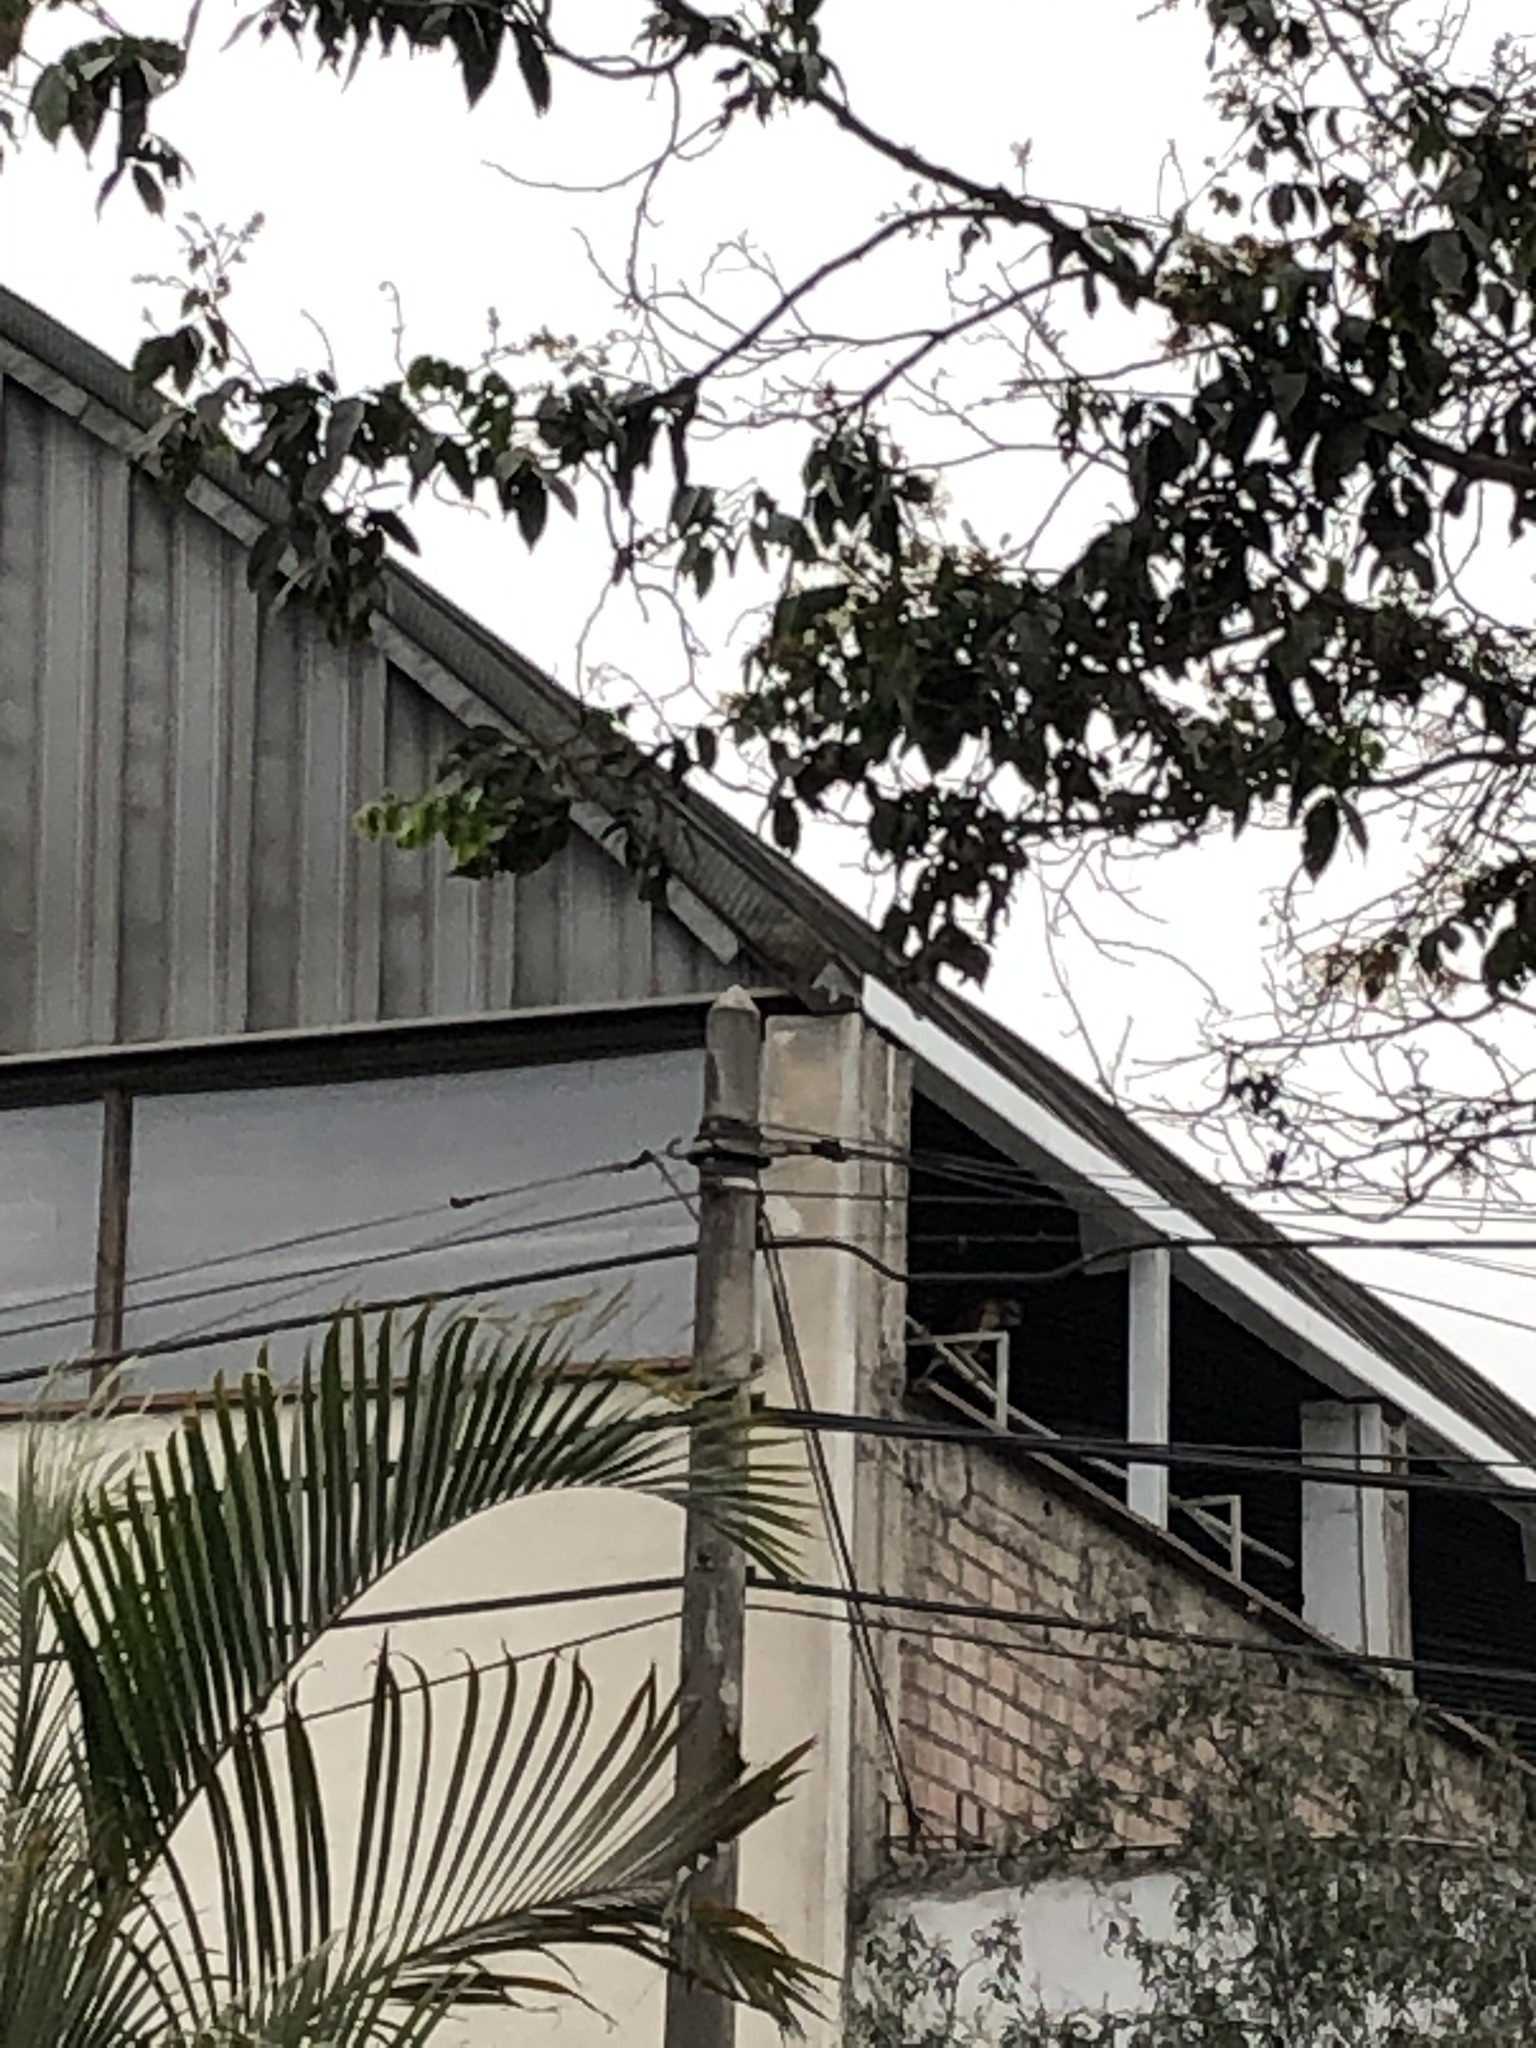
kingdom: Animalia
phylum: Chordata
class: Aves
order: Accipitriformes
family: Accipitridae
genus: Parabuteo
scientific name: Parabuteo unicinctus
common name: Harris's hawk
